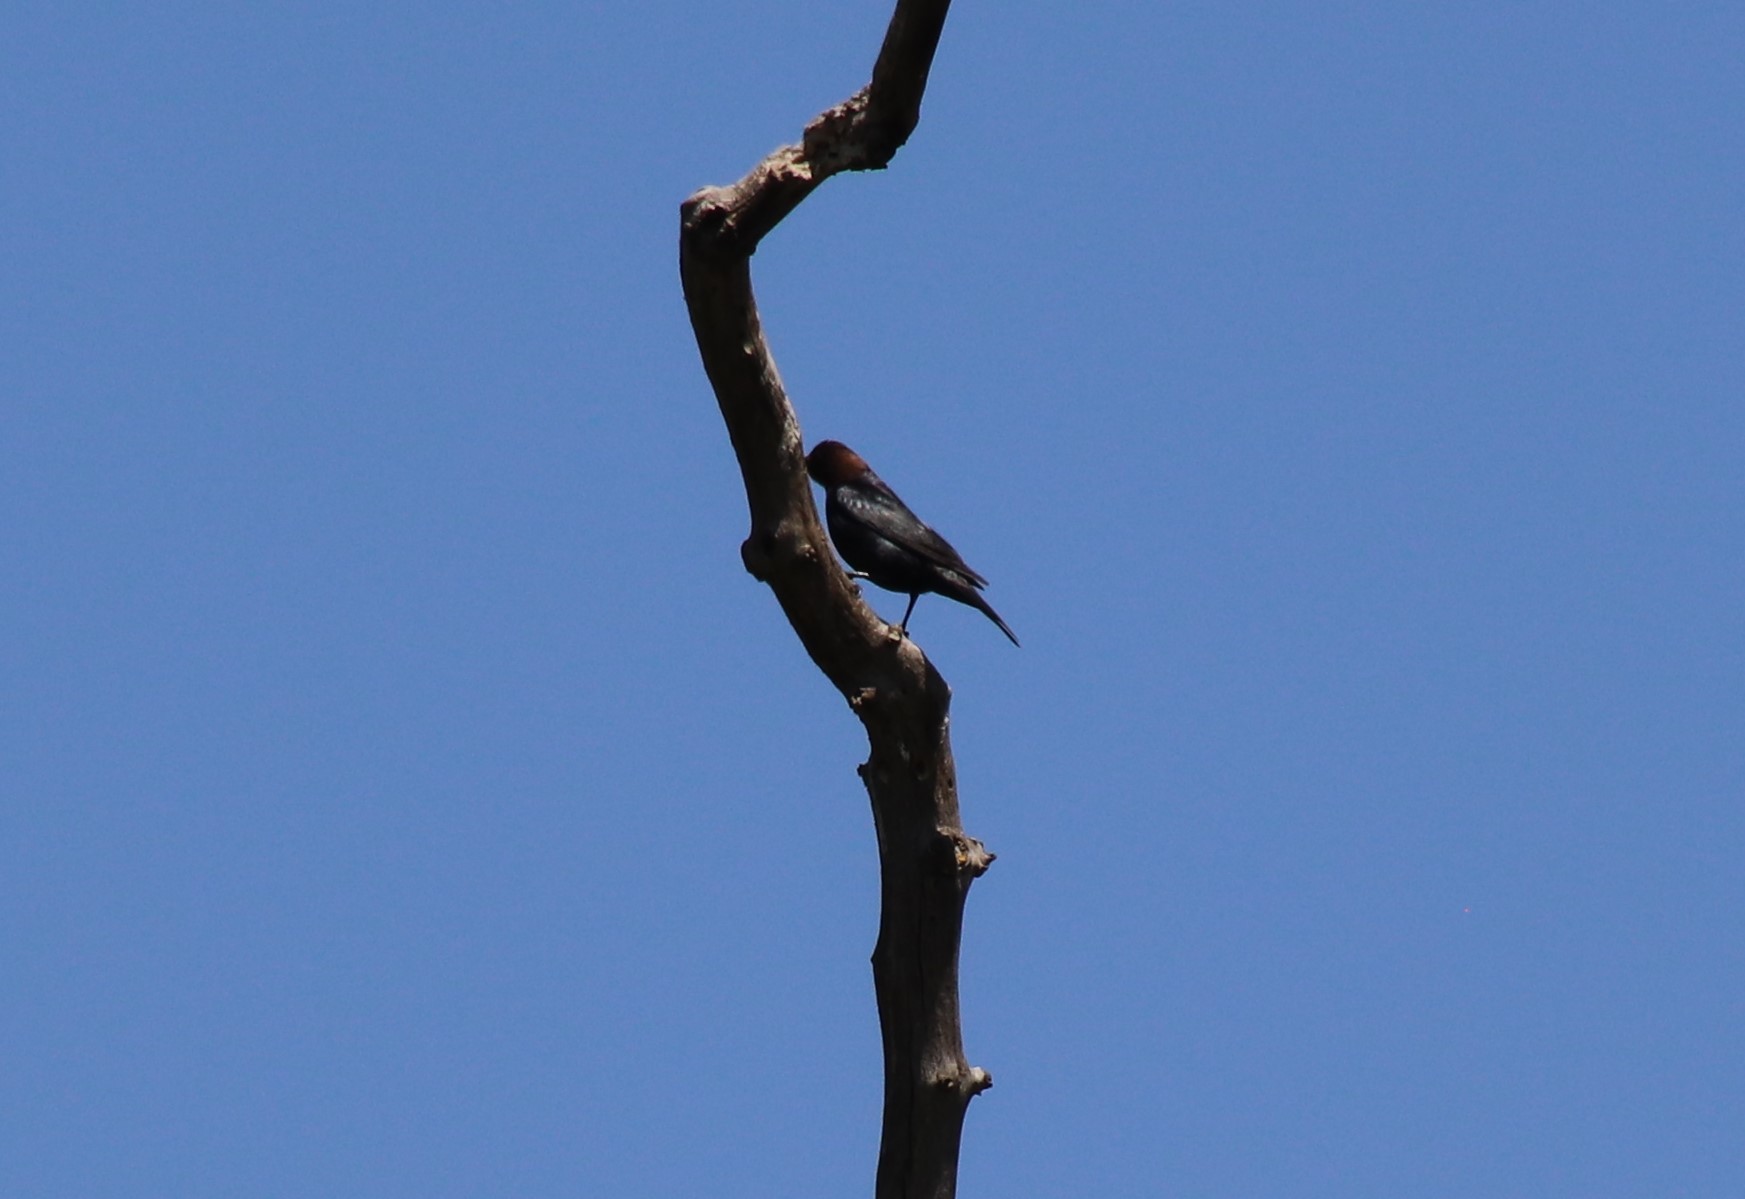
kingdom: Animalia
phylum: Chordata
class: Aves
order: Passeriformes
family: Icteridae
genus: Molothrus
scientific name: Molothrus ater
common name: Brown-headed cowbird
